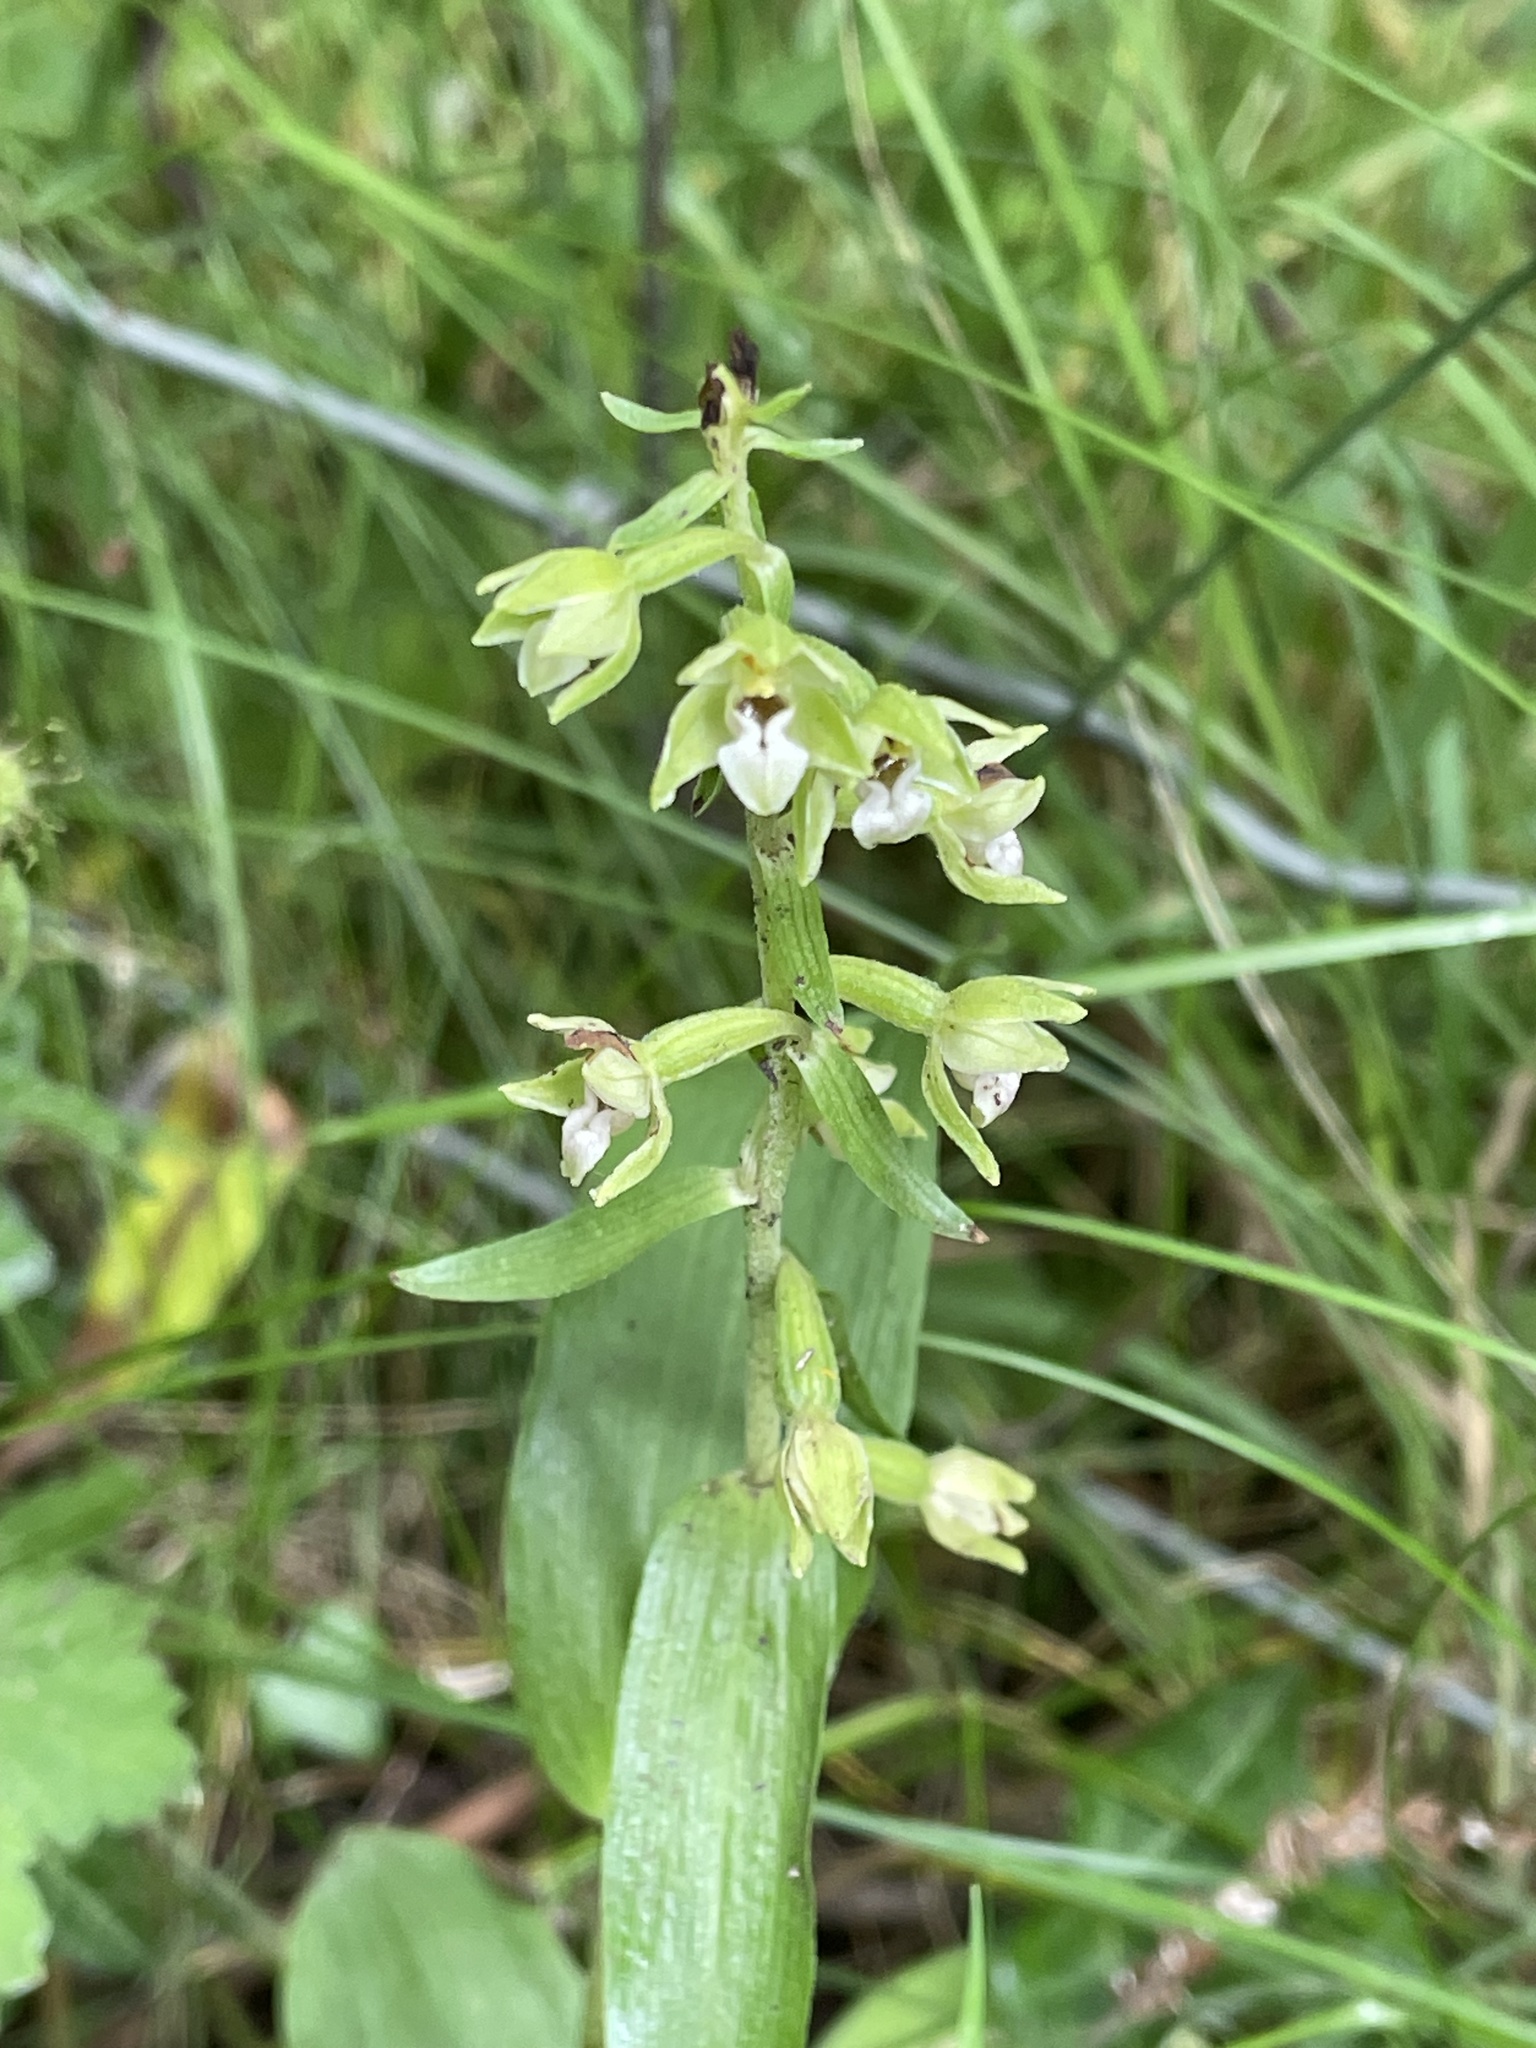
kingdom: Plantae
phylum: Tracheophyta
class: Liliopsida
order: Asparagales
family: Orchidaceae
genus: Epipactis
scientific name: Epipactis helleborine
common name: Broad-leaved helleborine
